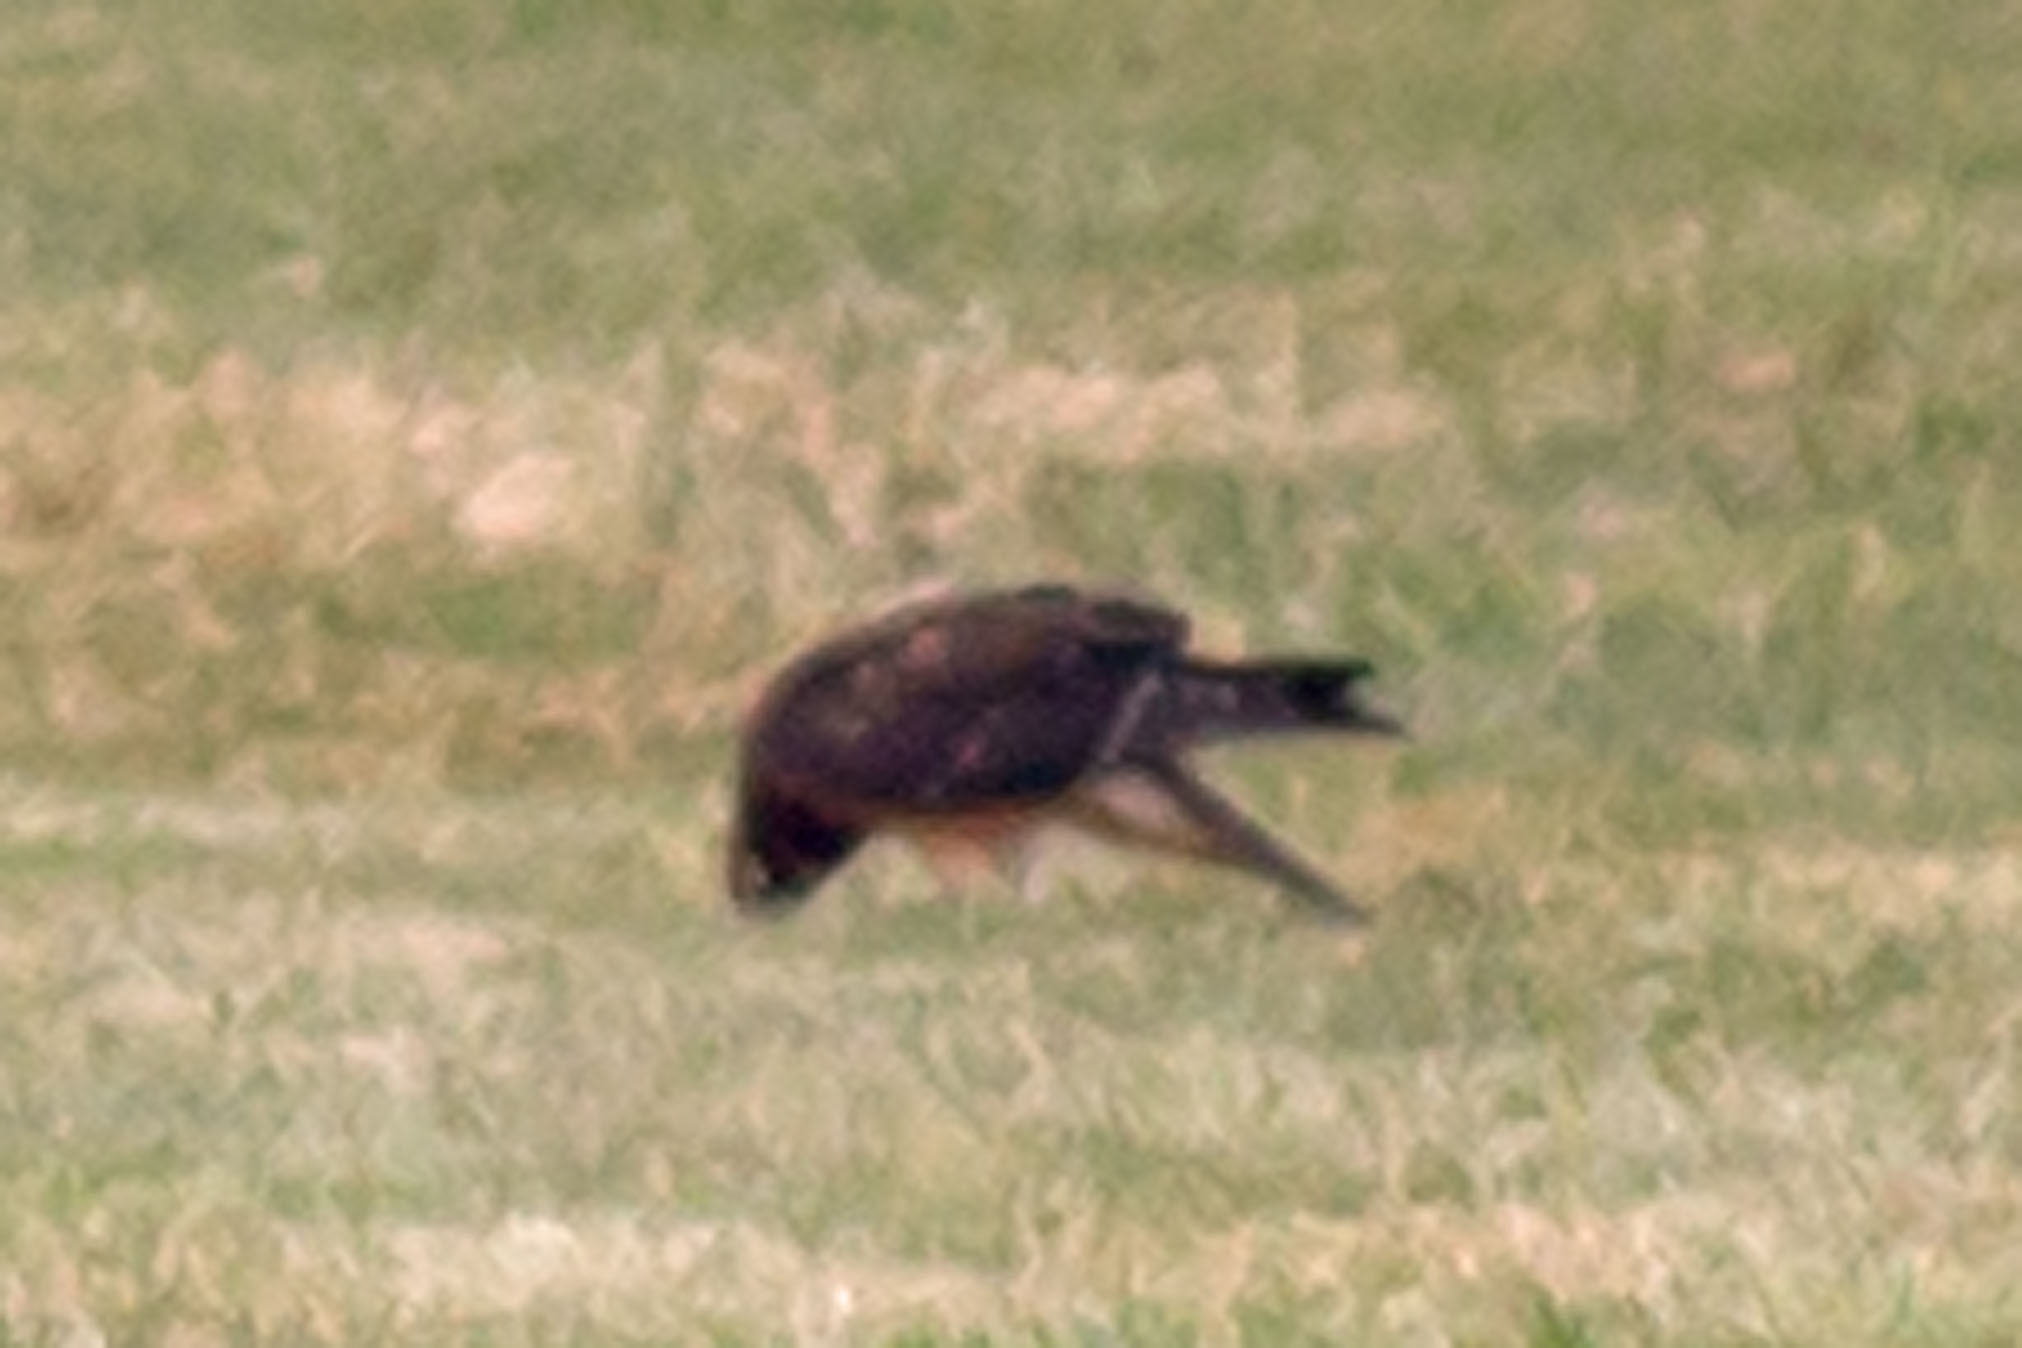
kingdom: Animalia
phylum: Chordata
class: Aves
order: Accipitriformes
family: Accipitridae
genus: Circus
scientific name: Circus cyaneus
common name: Hen harrier
